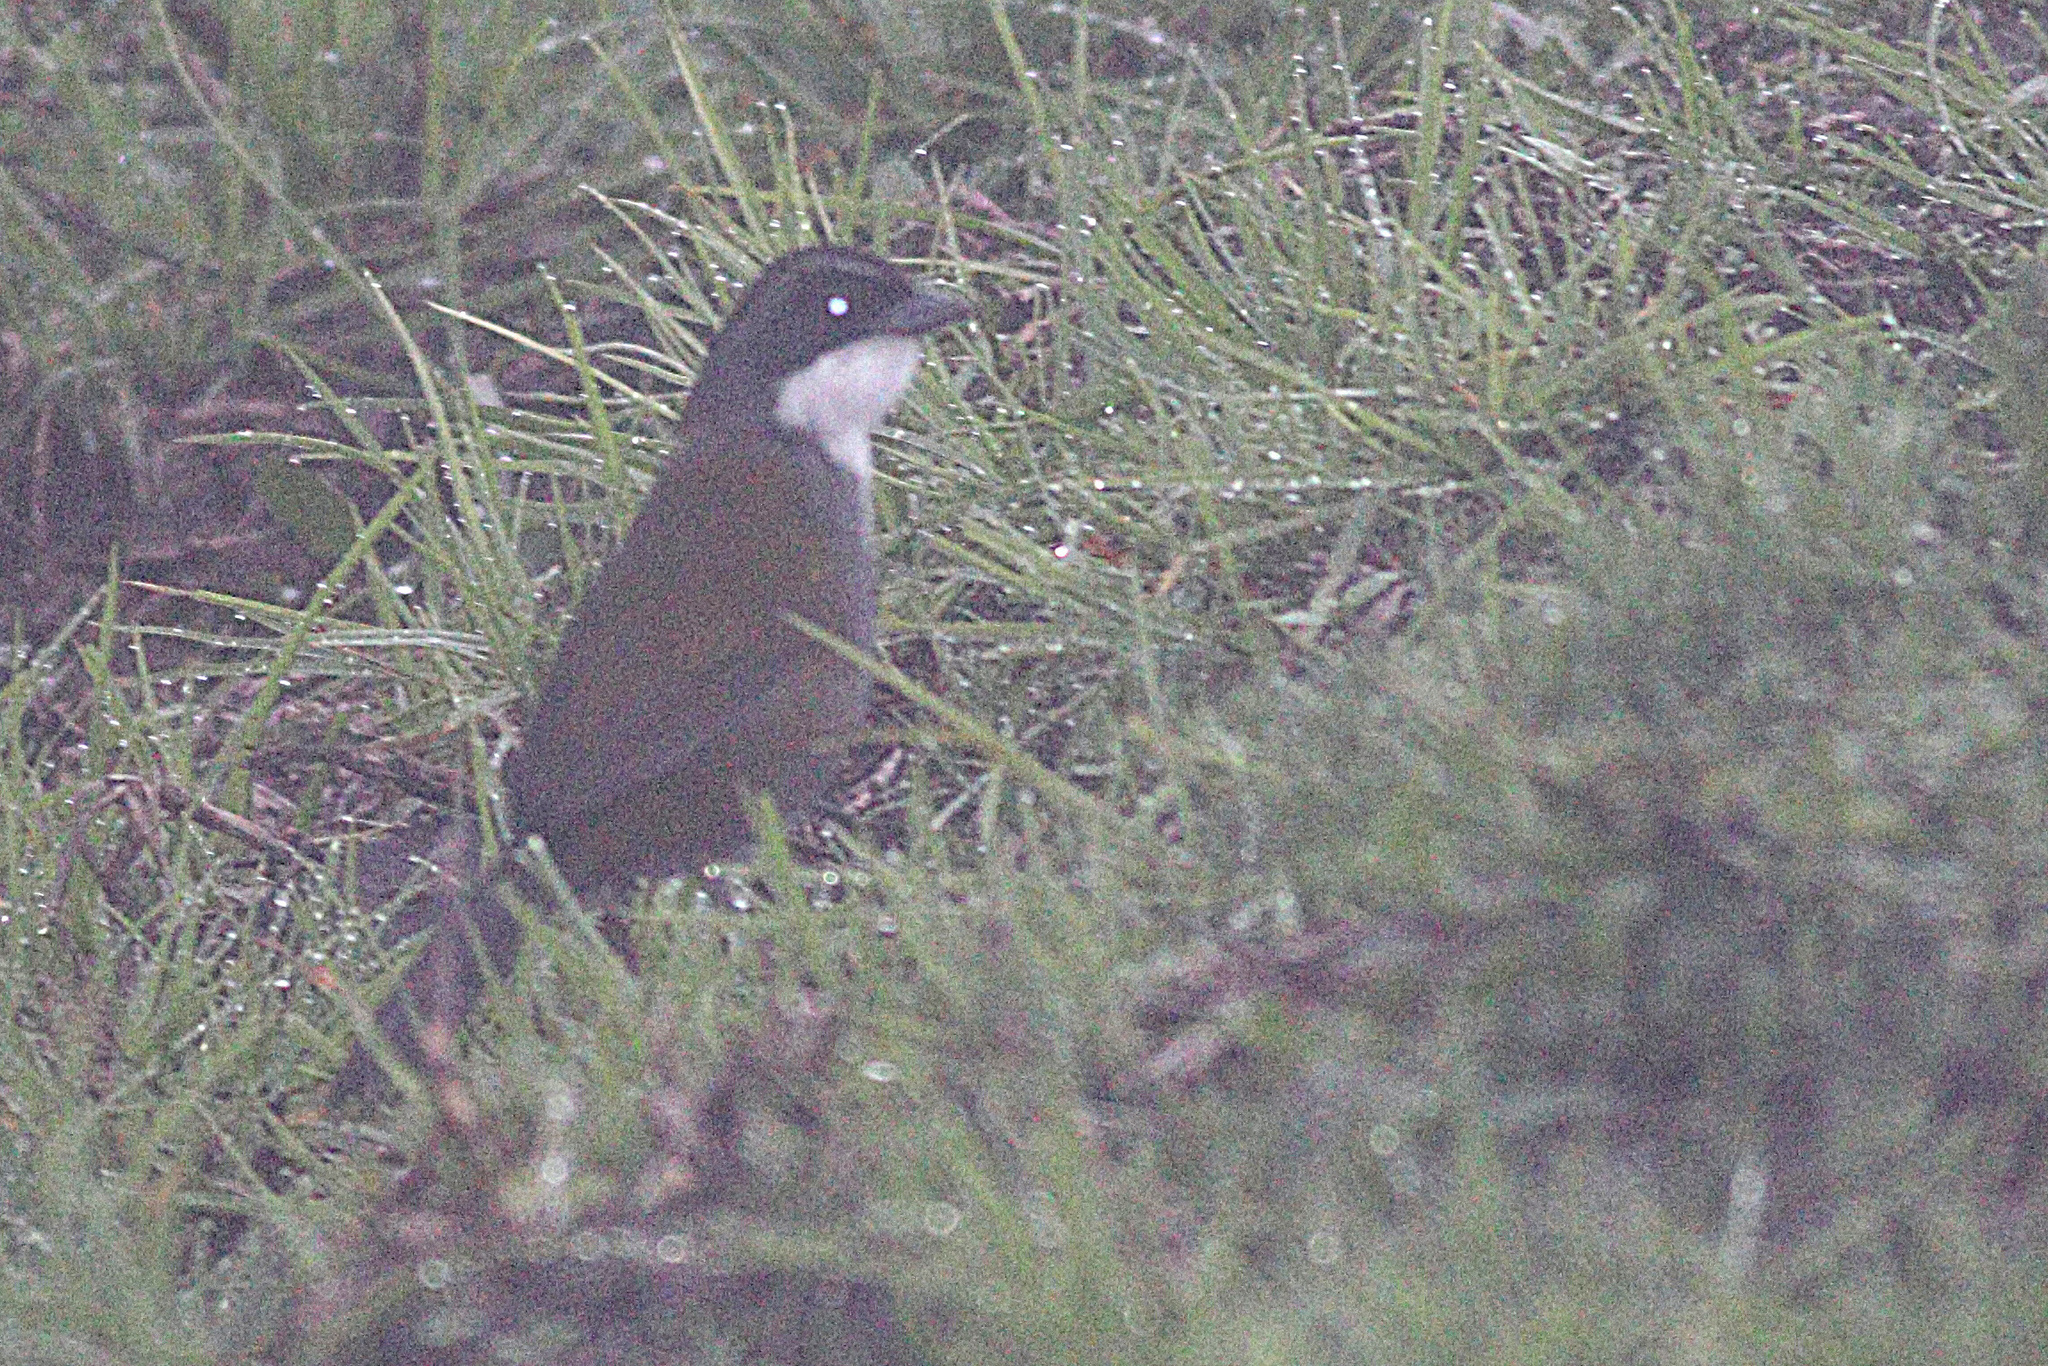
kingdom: Animalia
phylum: Chordata
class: Aves
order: Passeriformes
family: Passerellidae
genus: Arremon
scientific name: Arremon assimilis
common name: Grey-browed brushfinch
